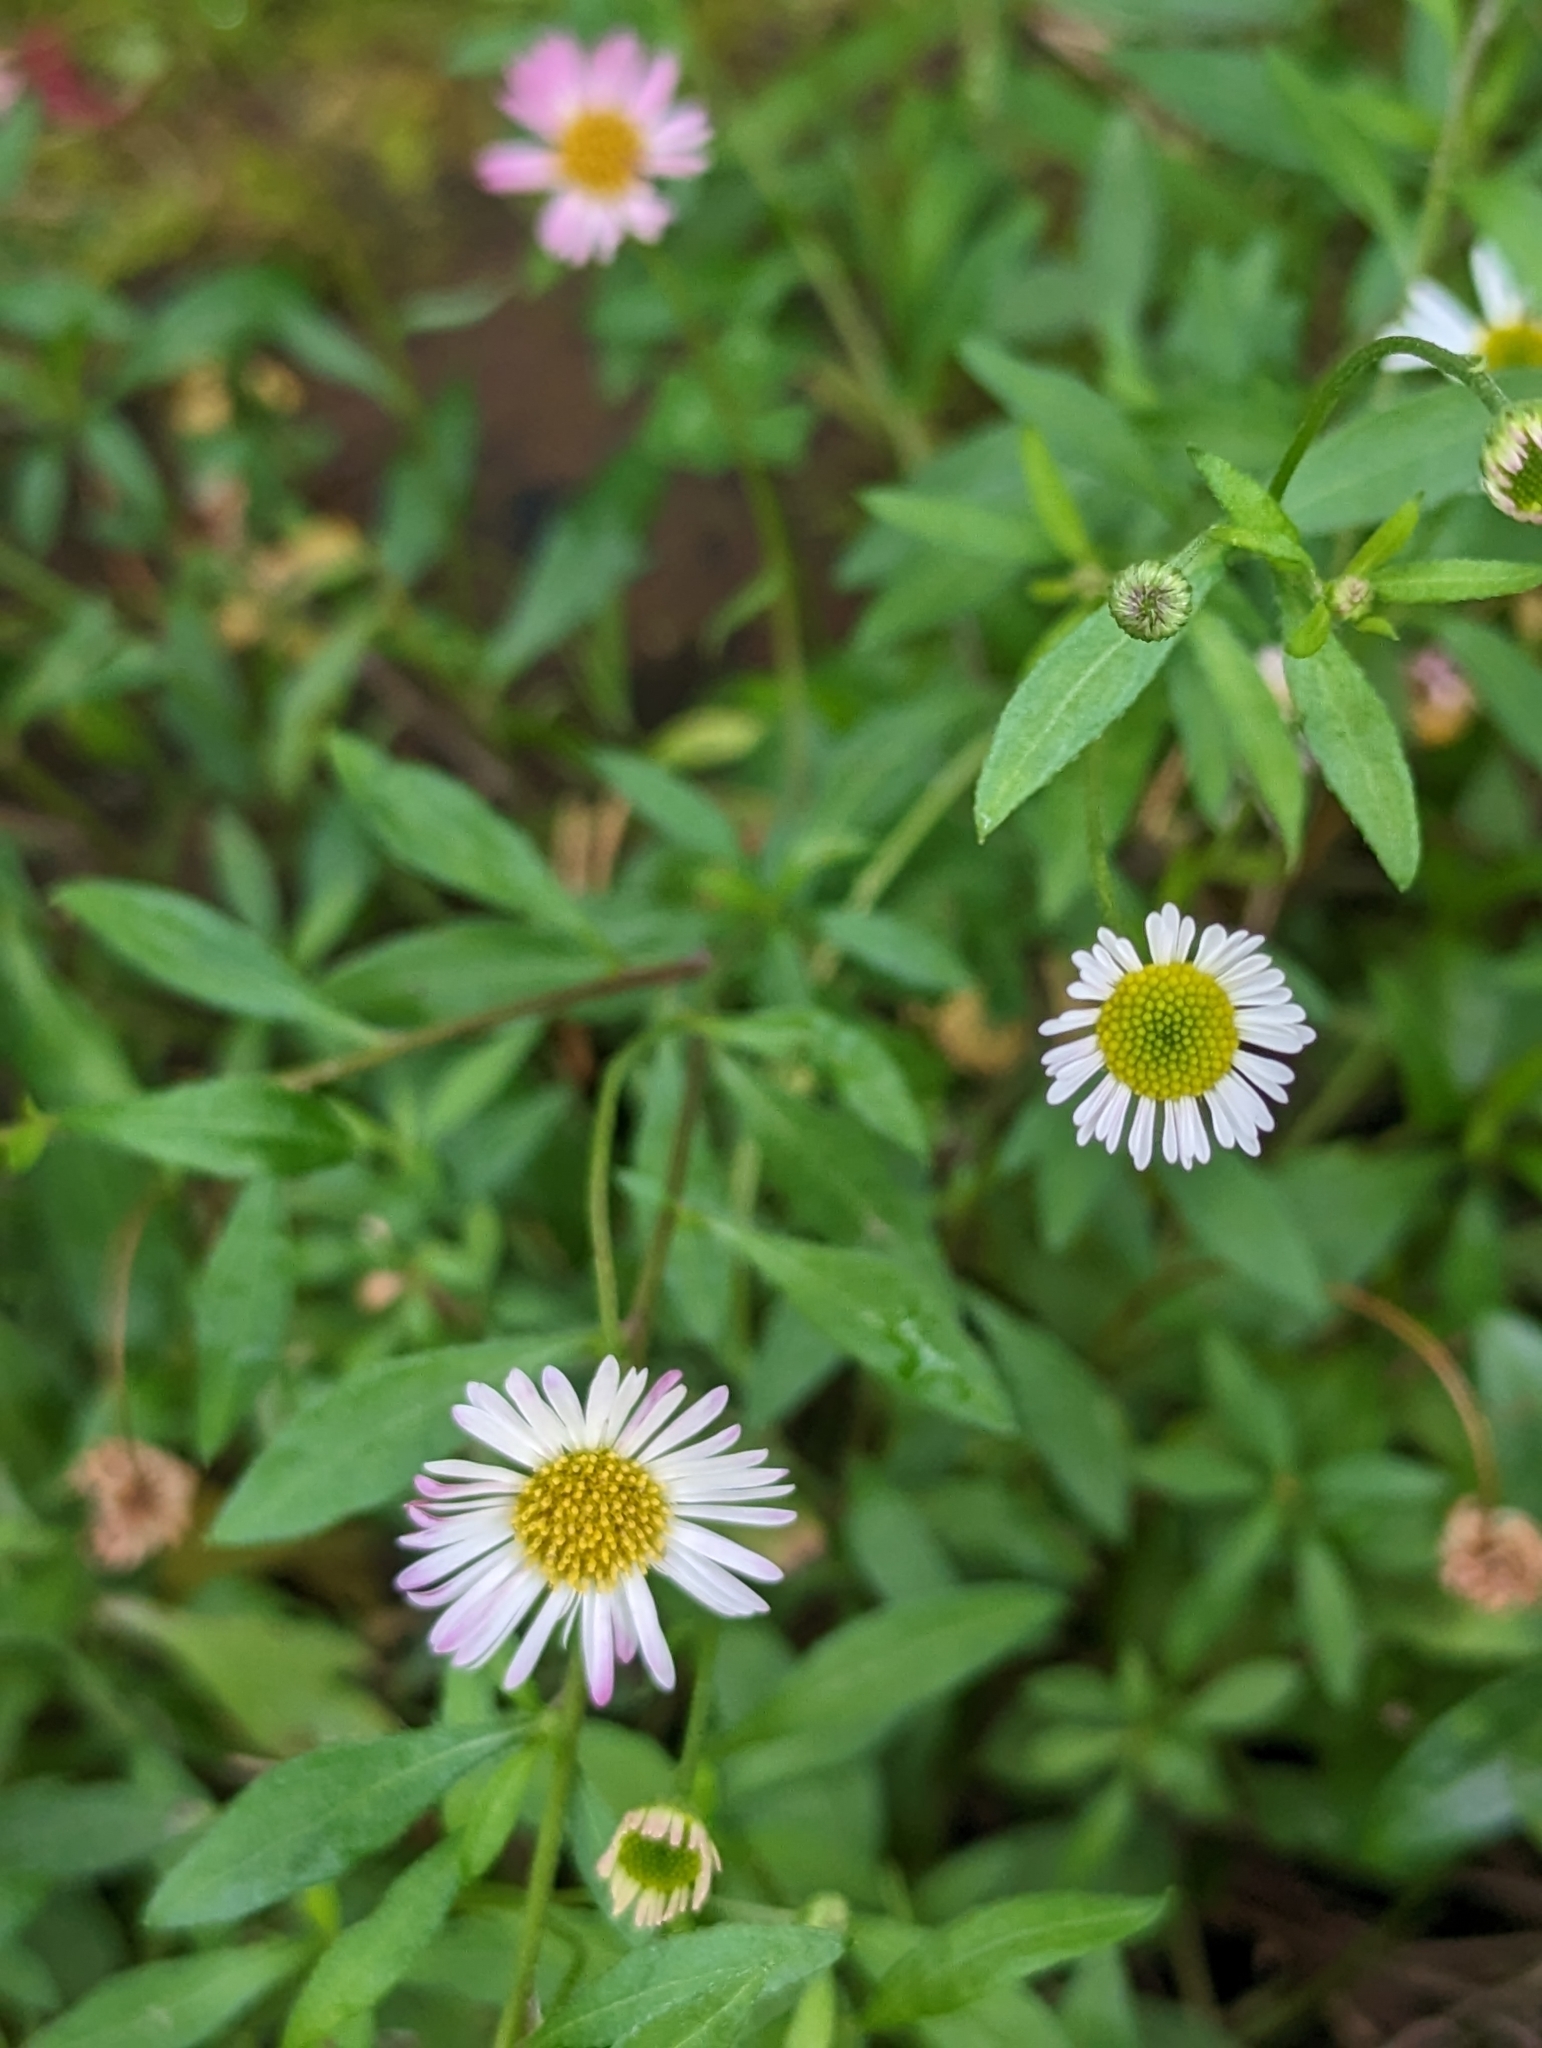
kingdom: Plantae
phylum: Tracheophyta
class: Magnoliopsida
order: Asterales
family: Asteraceae
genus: Erigeron
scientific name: Erigeron karvinskianus
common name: Mexican fleabane
